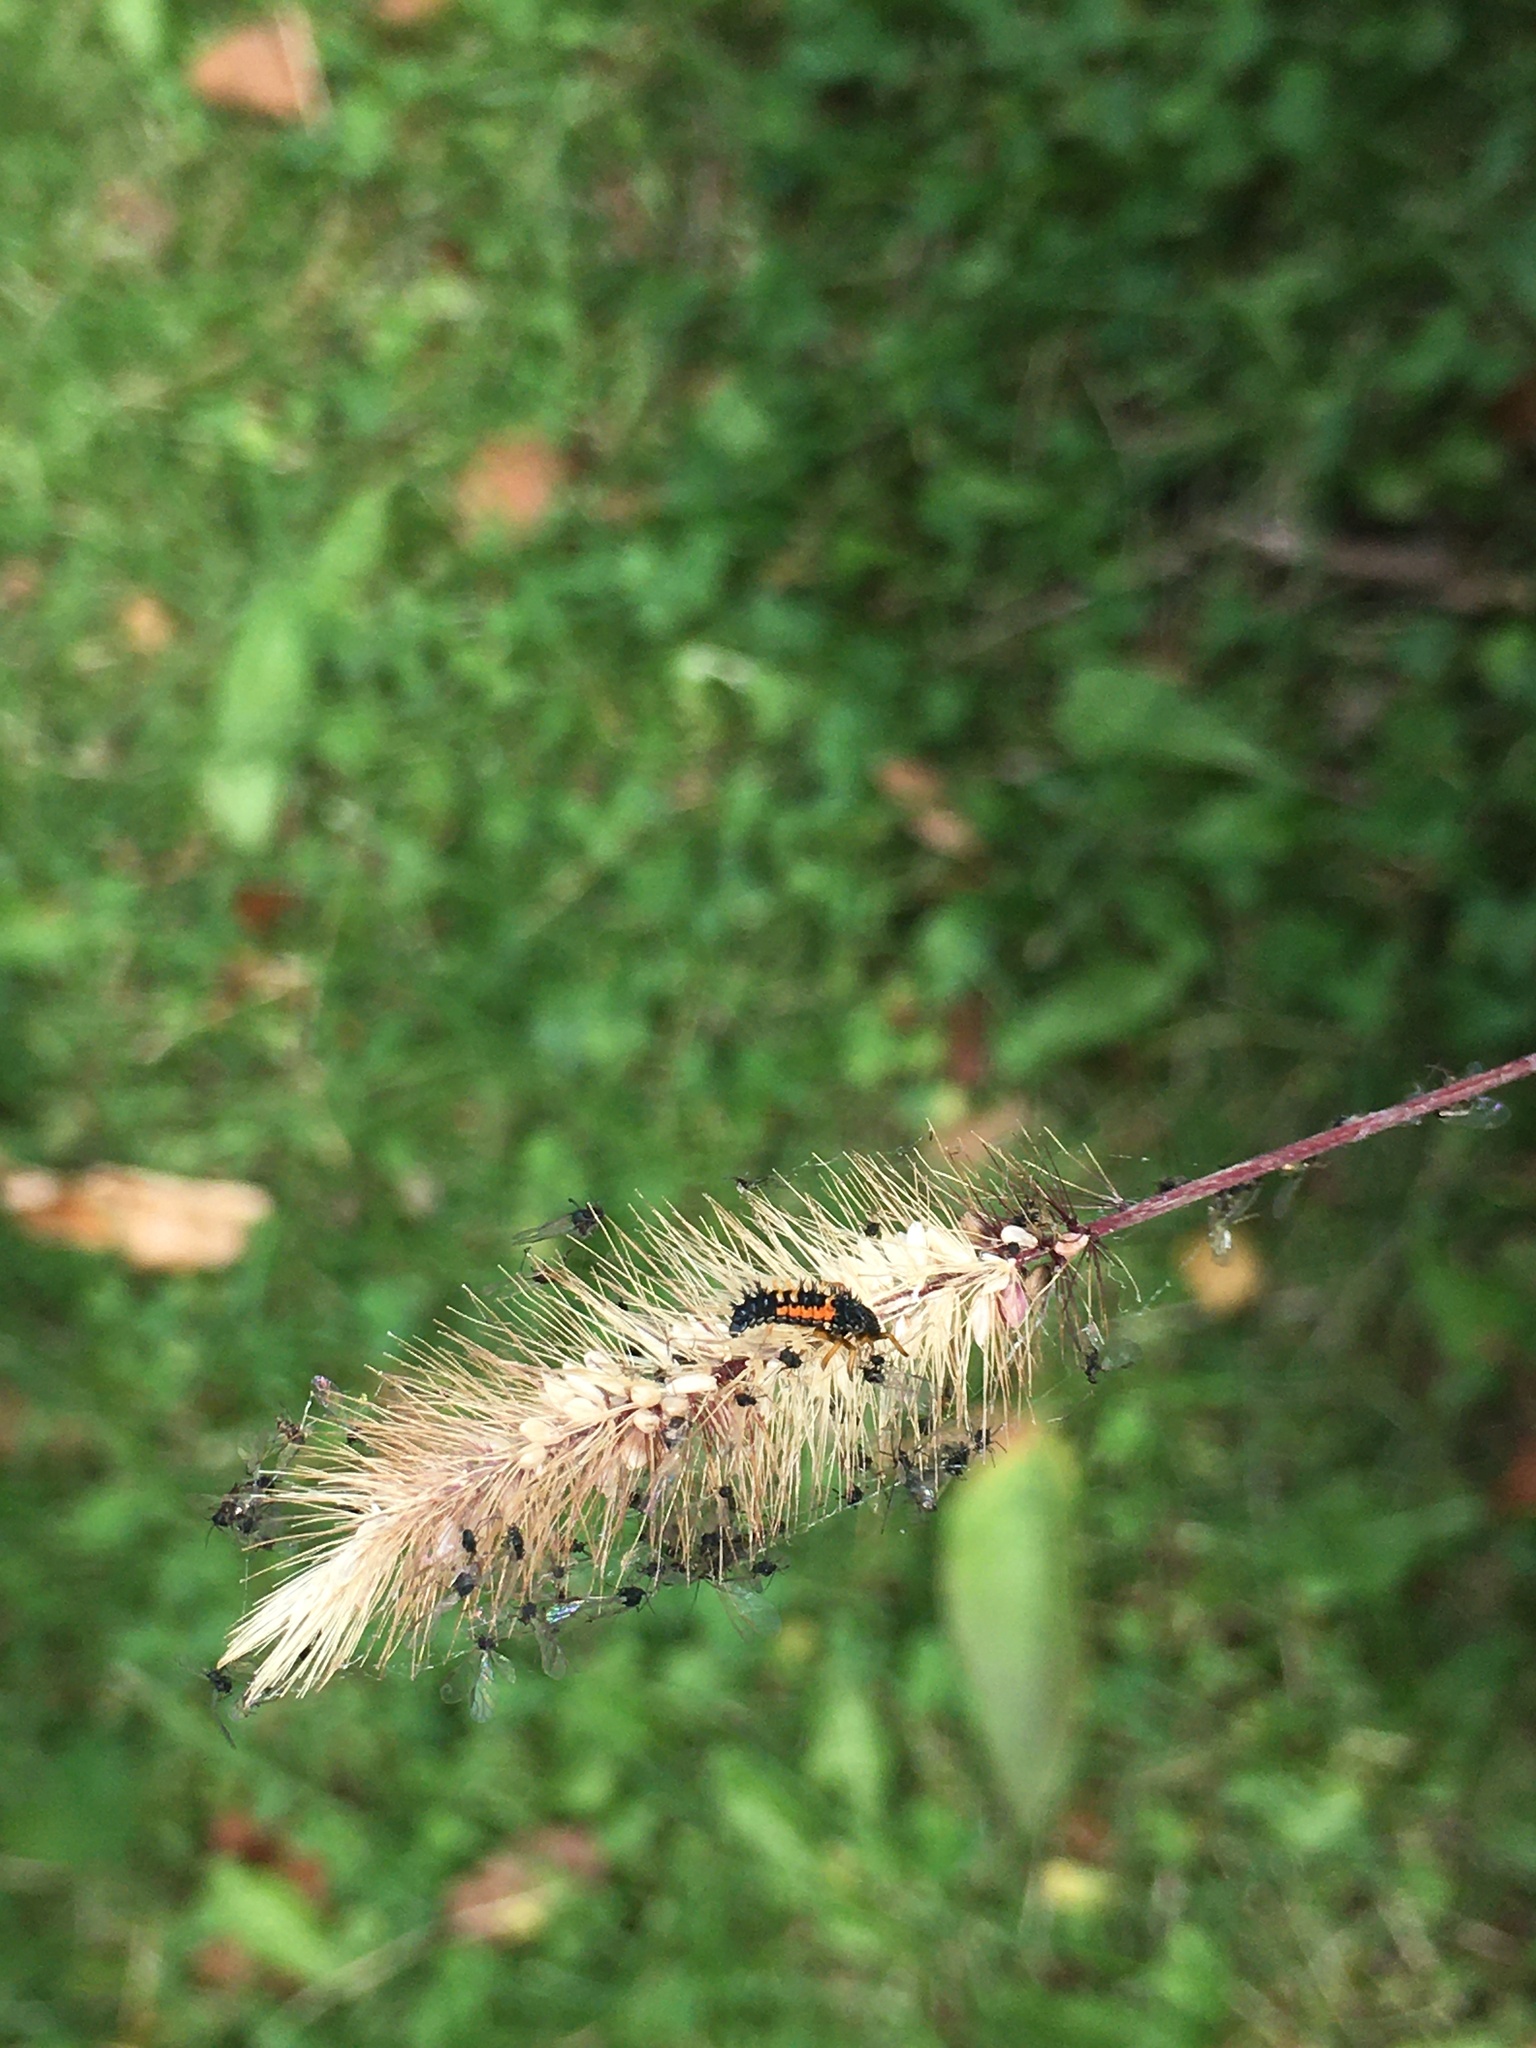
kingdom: Animalia
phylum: Arthropoda
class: Insecta
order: Coleoptera
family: Coccinellidae
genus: Harmonia
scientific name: Harmonia axyridis
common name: Harlequin ladybird
